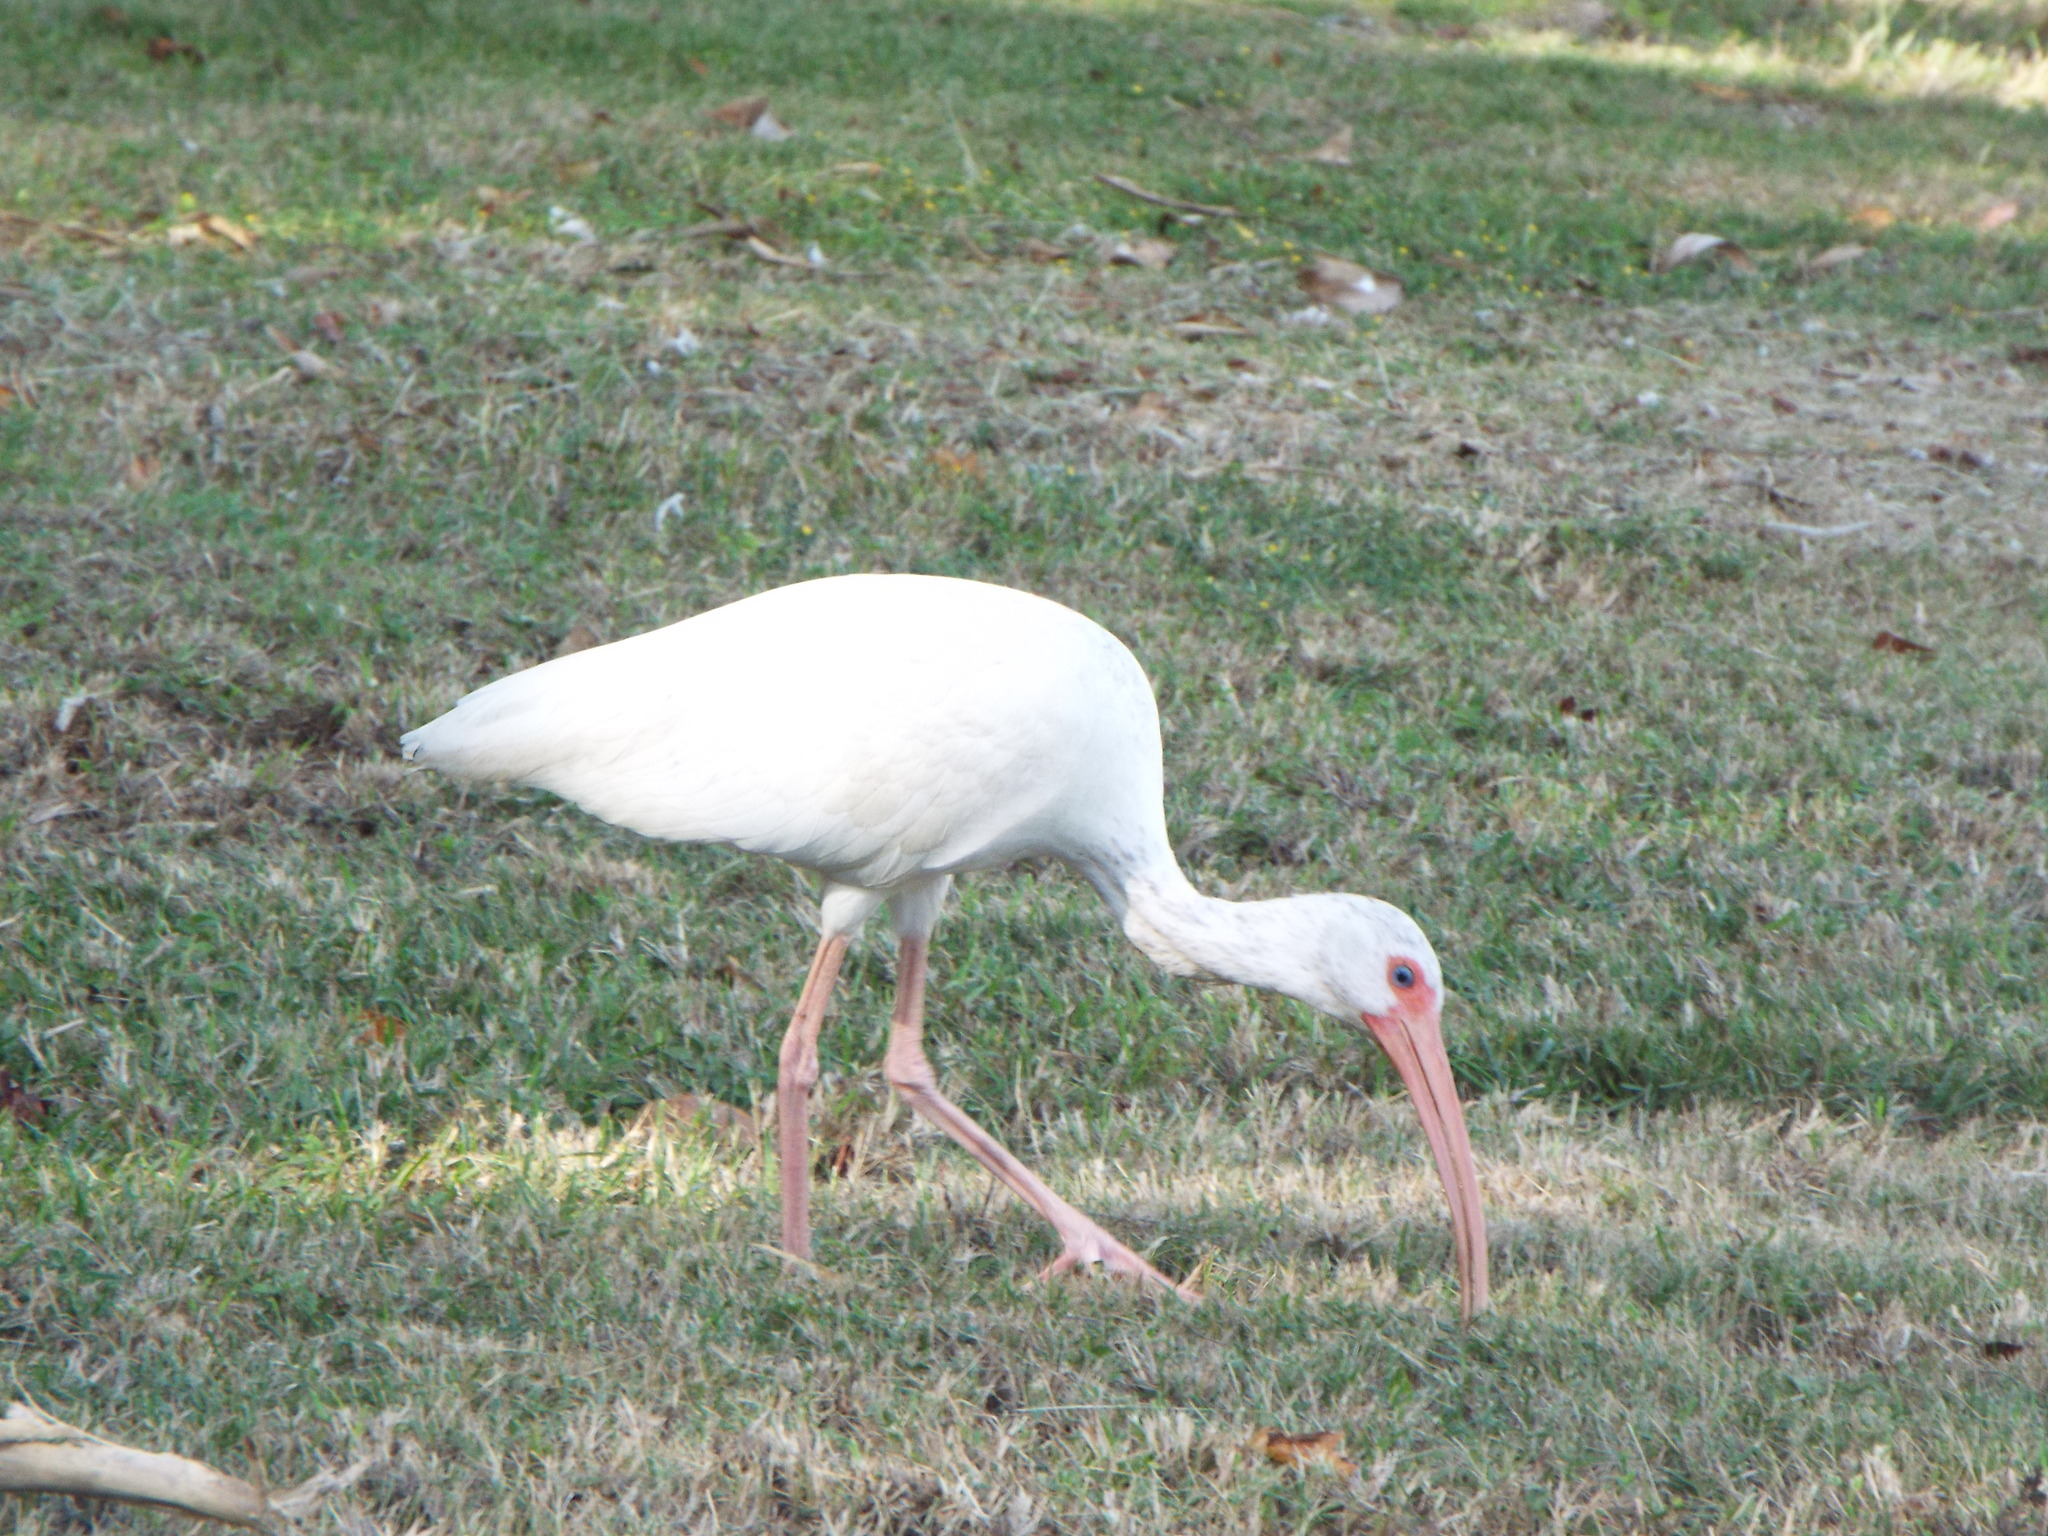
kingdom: Animalia
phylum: Chordata
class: Aves
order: Pelecaniformes
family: Threskiornithidae
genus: Eudocimus
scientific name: Eudocimus albus
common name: White ibis
